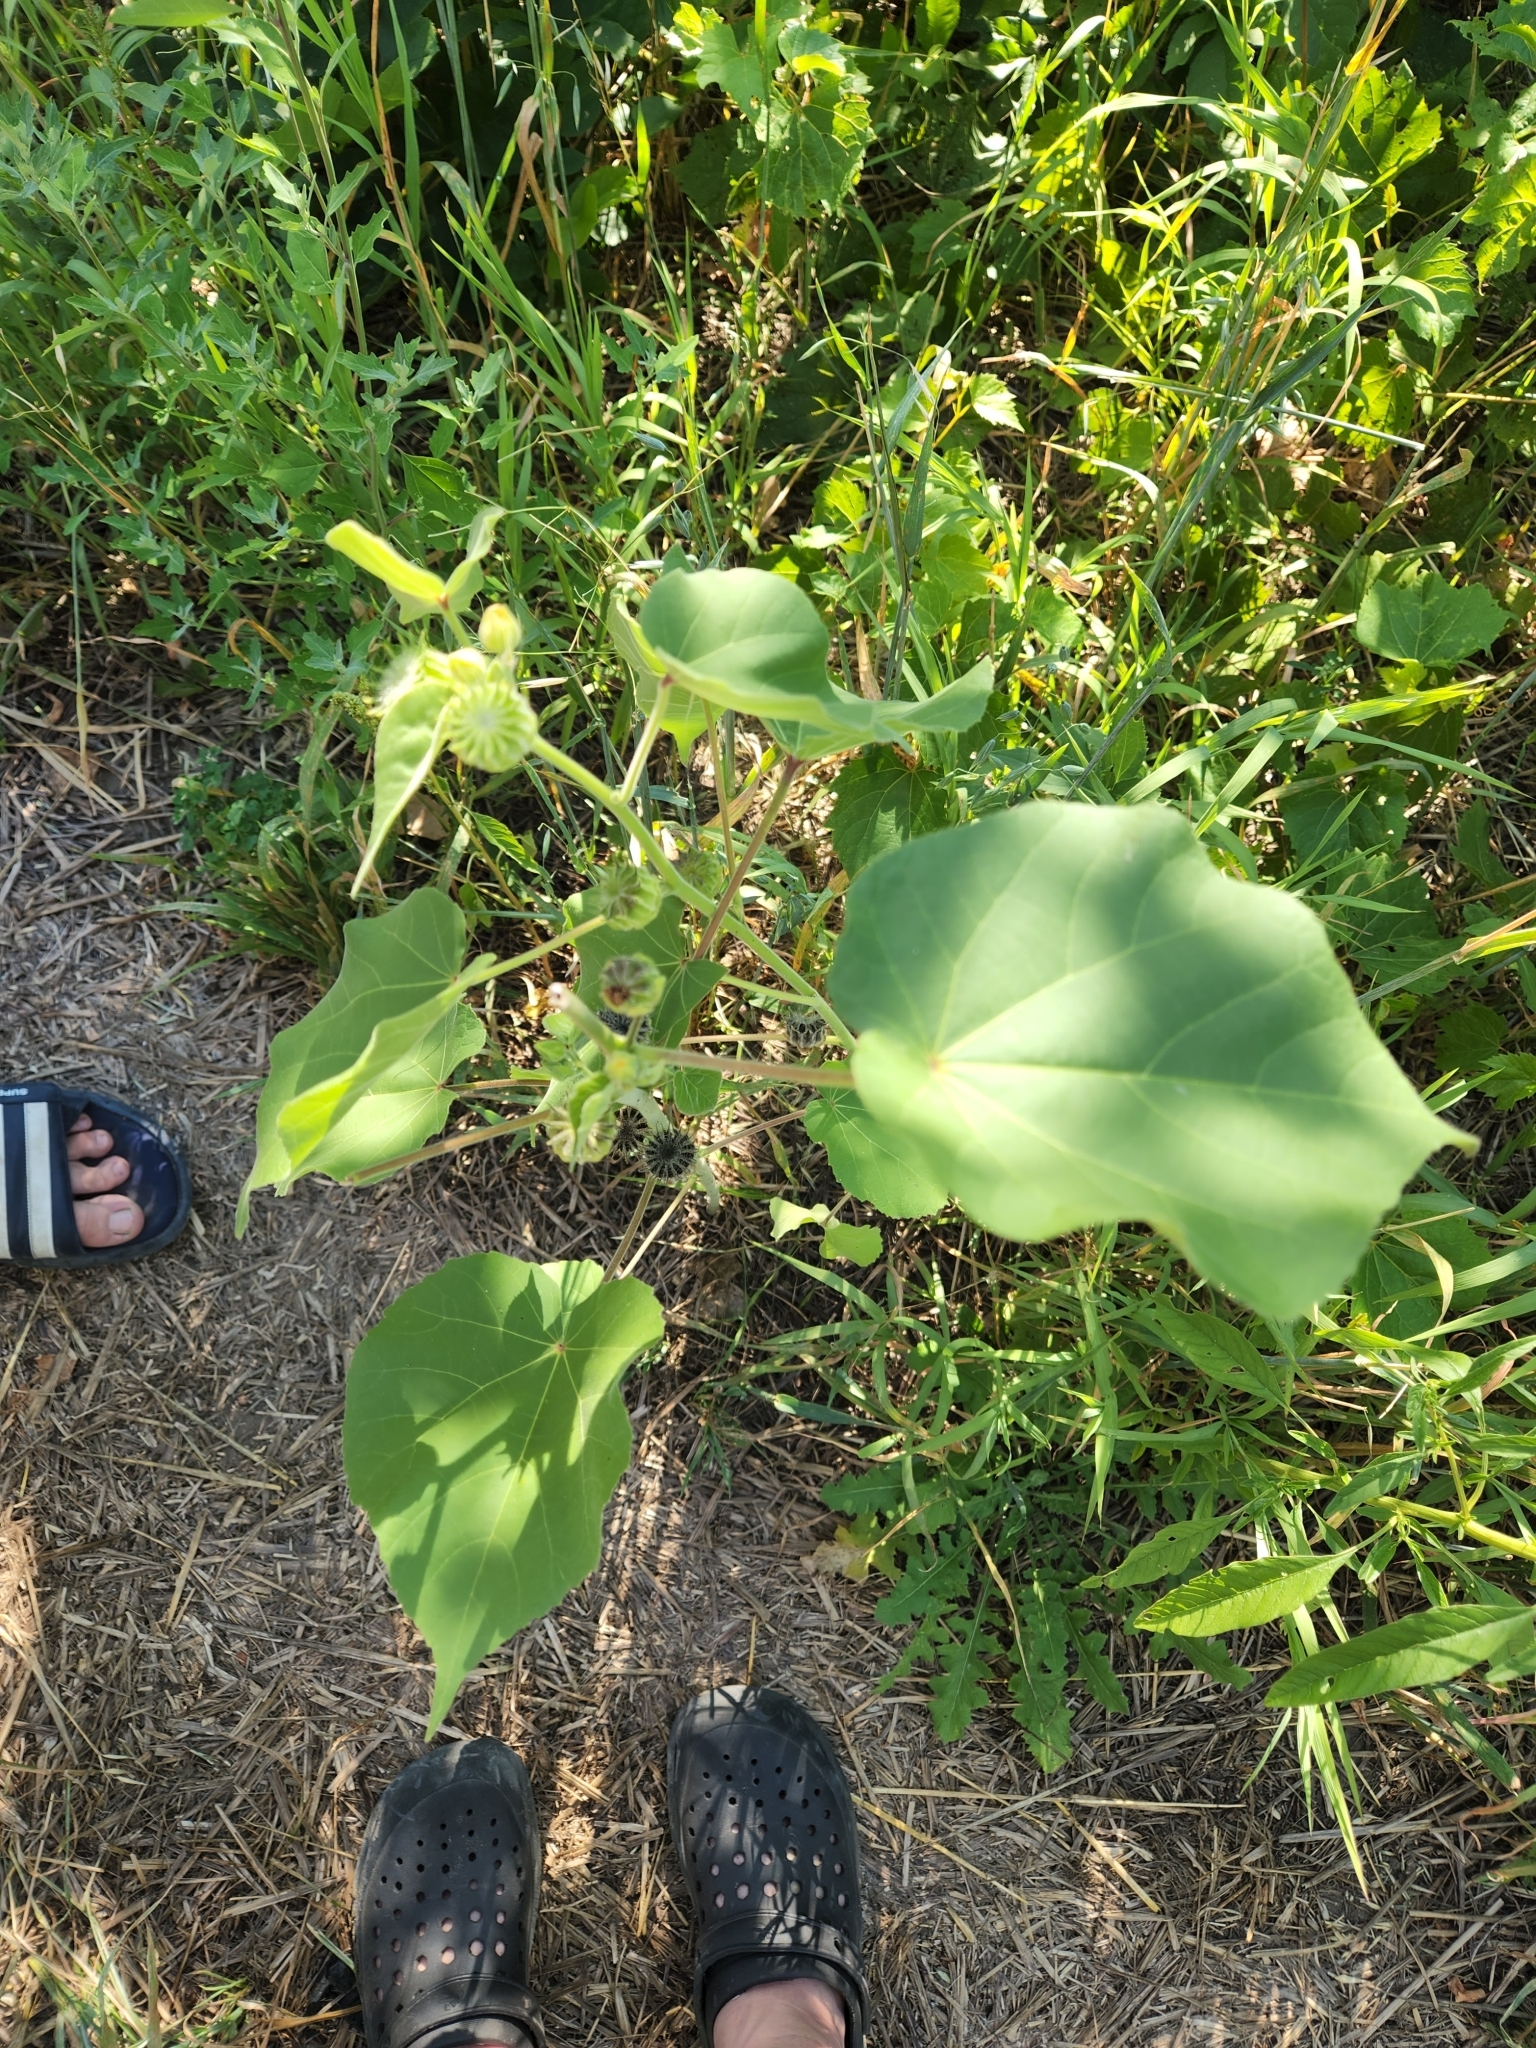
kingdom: Plantae
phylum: Tracheophyta
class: Magnoliopsida
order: Malvales
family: Malvaceae
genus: Abutilon
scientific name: Abutilon theophrasti
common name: Velvetleaf
